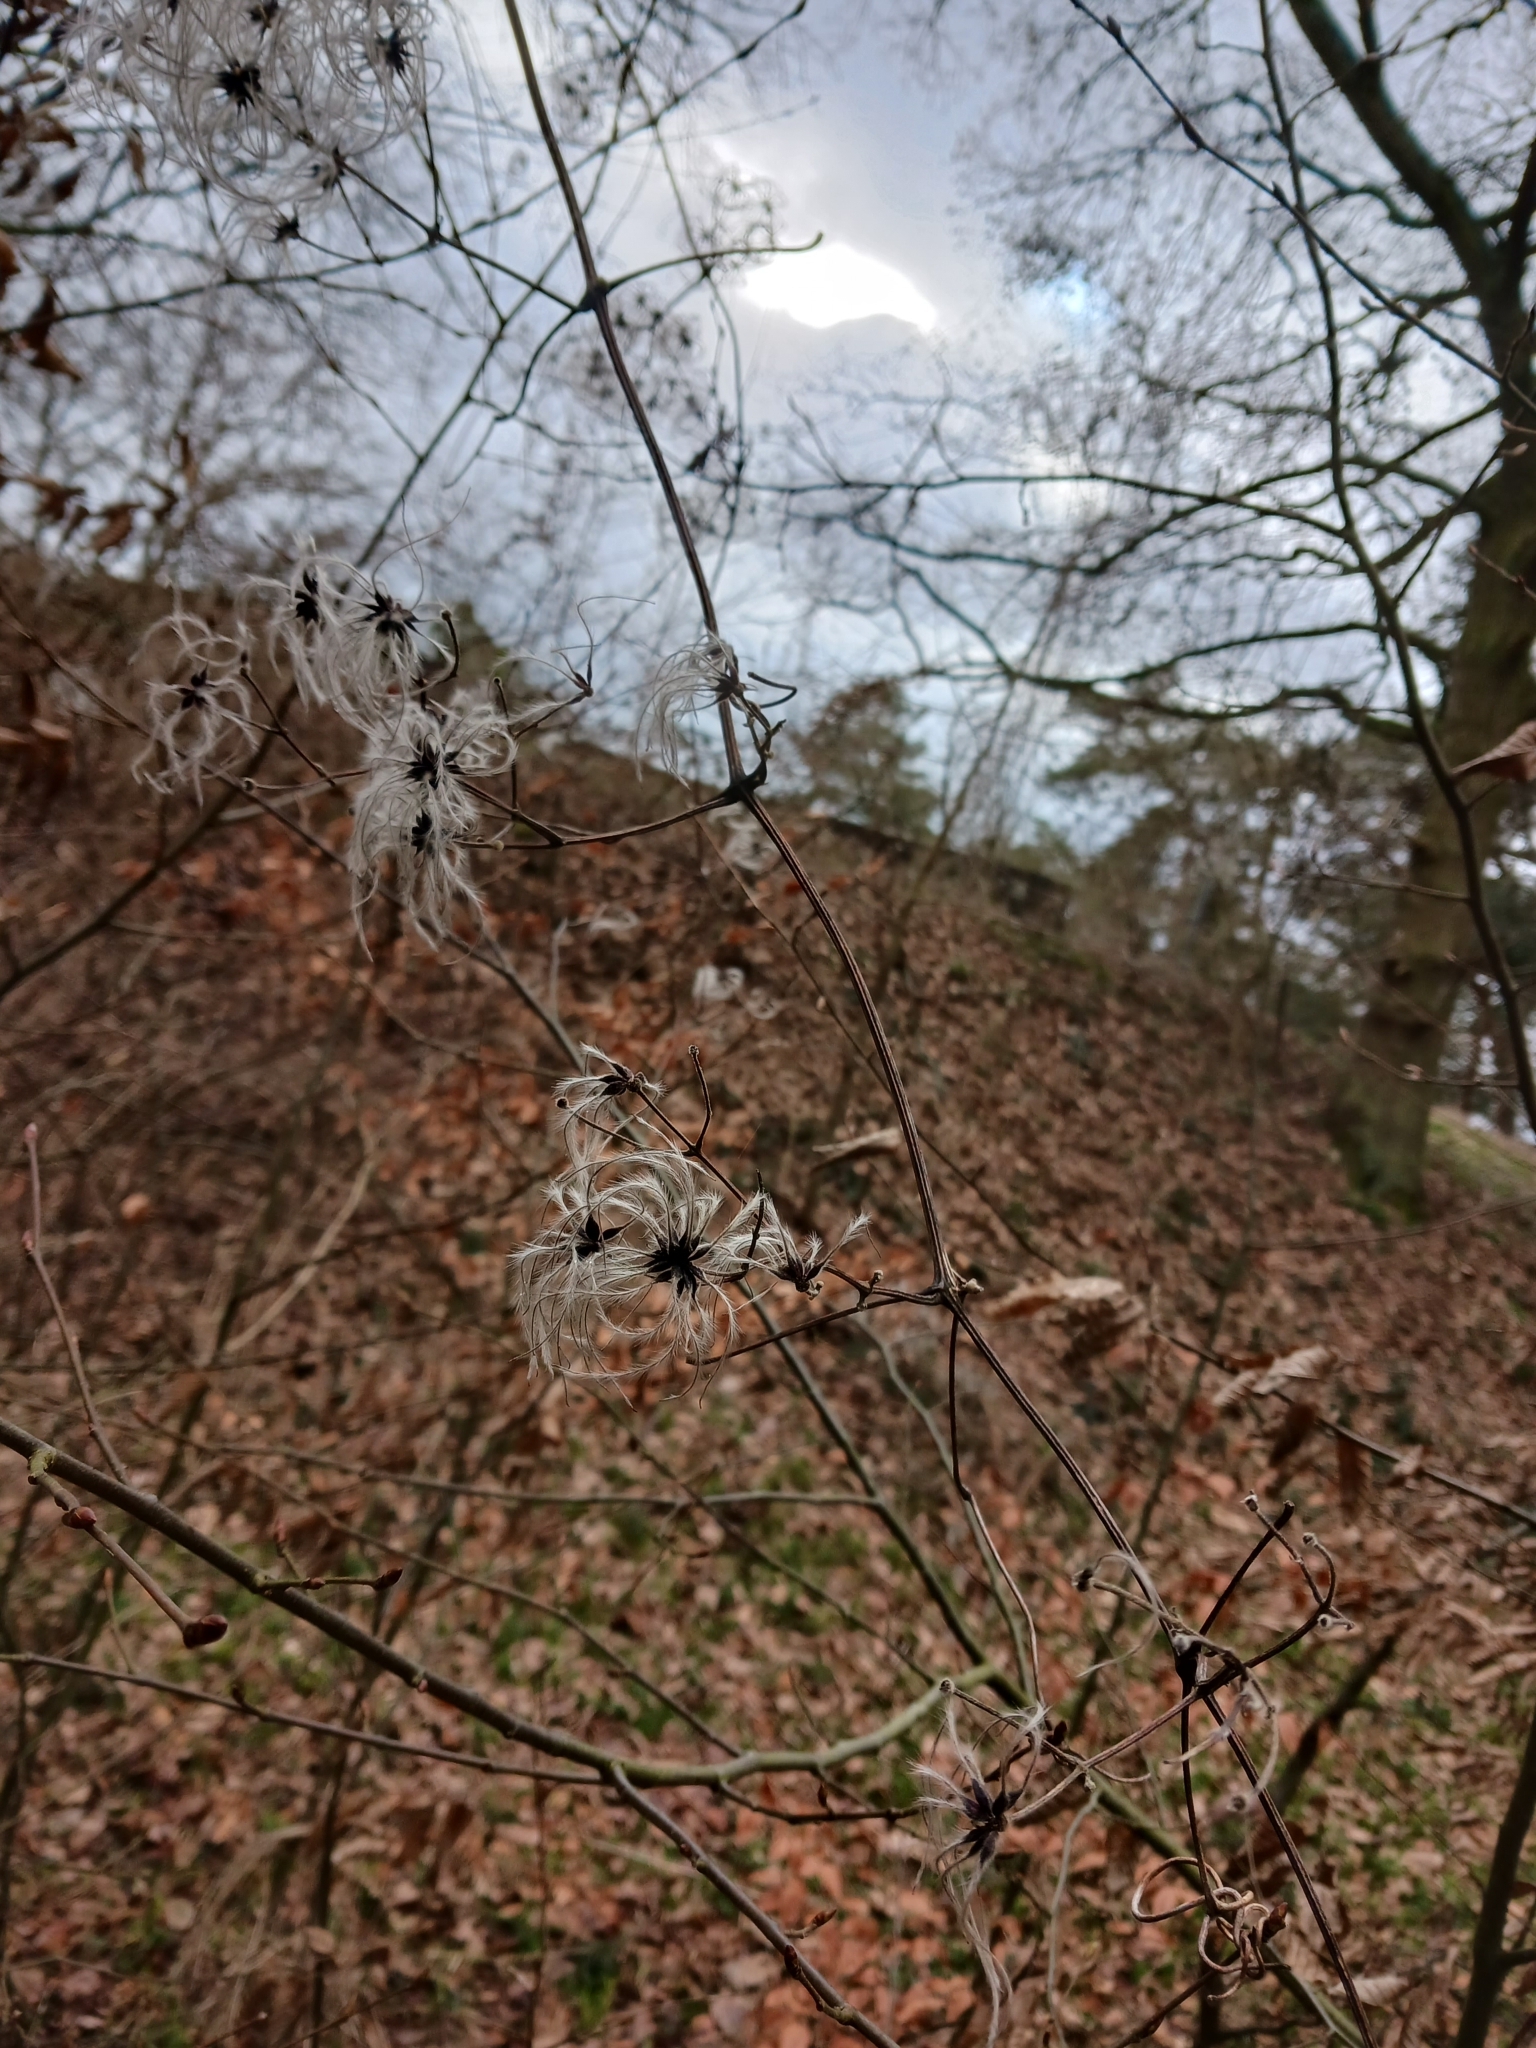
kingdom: Plantae
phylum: Tracheophyta
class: Magnoliopsida
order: Ranunculales
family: Ranunculaceae
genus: Clematis
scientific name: Clematis vitalba
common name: Evergreen clematis
